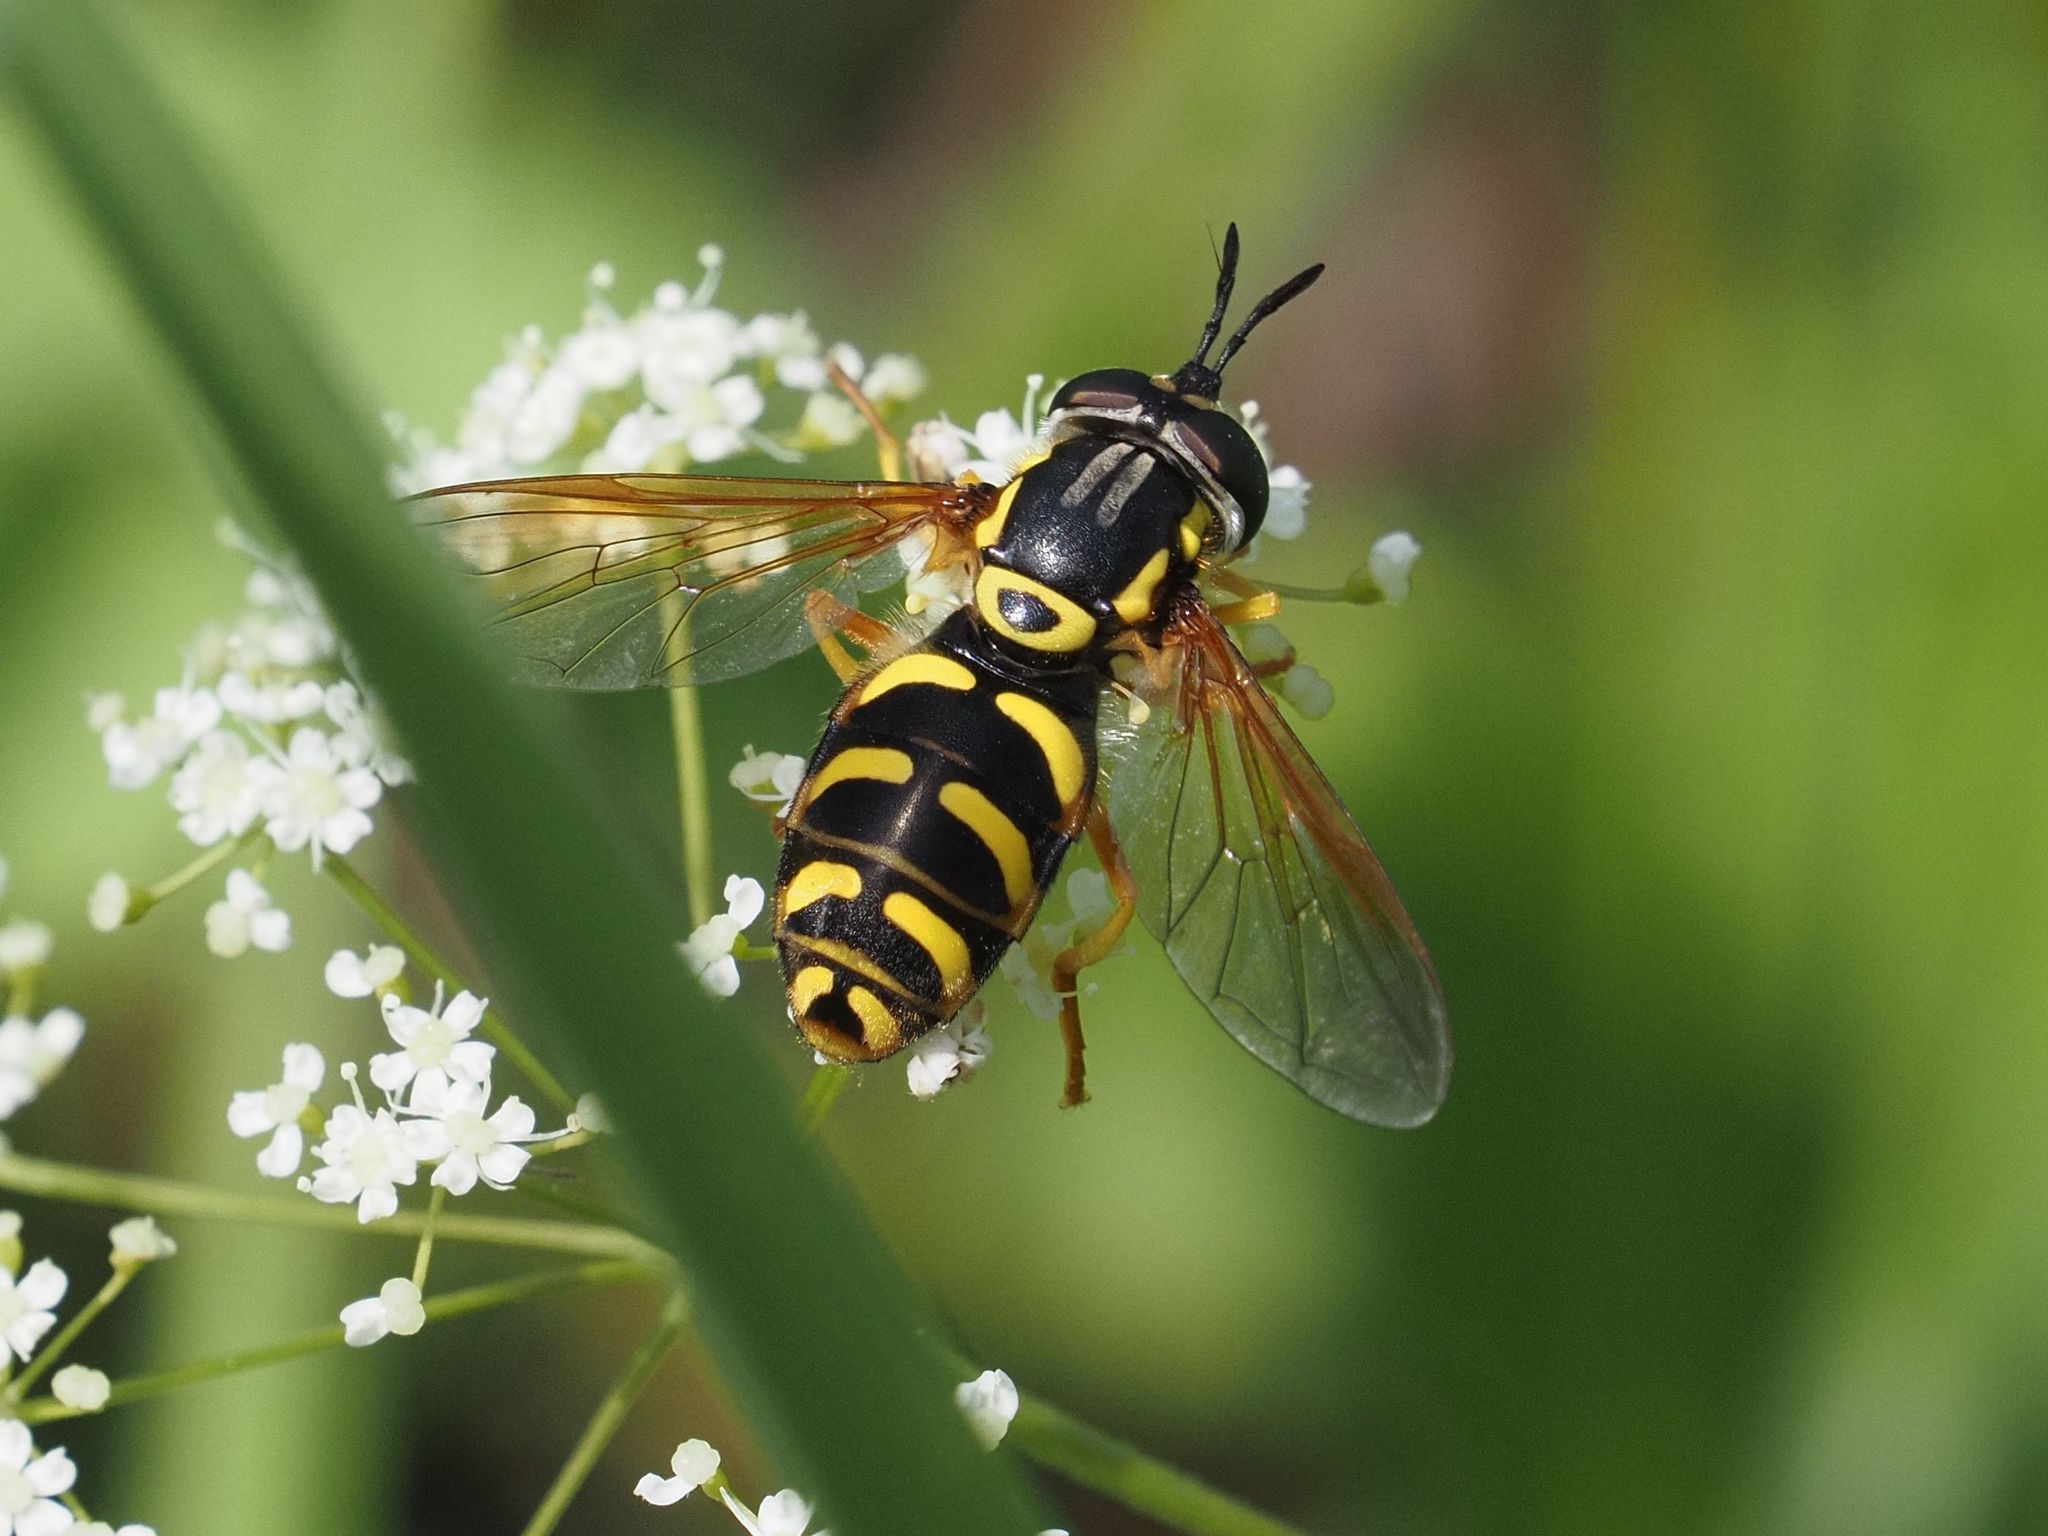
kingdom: Animalia
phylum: Arthropoda
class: Insecta
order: Diptera
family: Syrphidae
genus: Chrysotoxum
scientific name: Chrysotoxum elegans
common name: Zipperback
